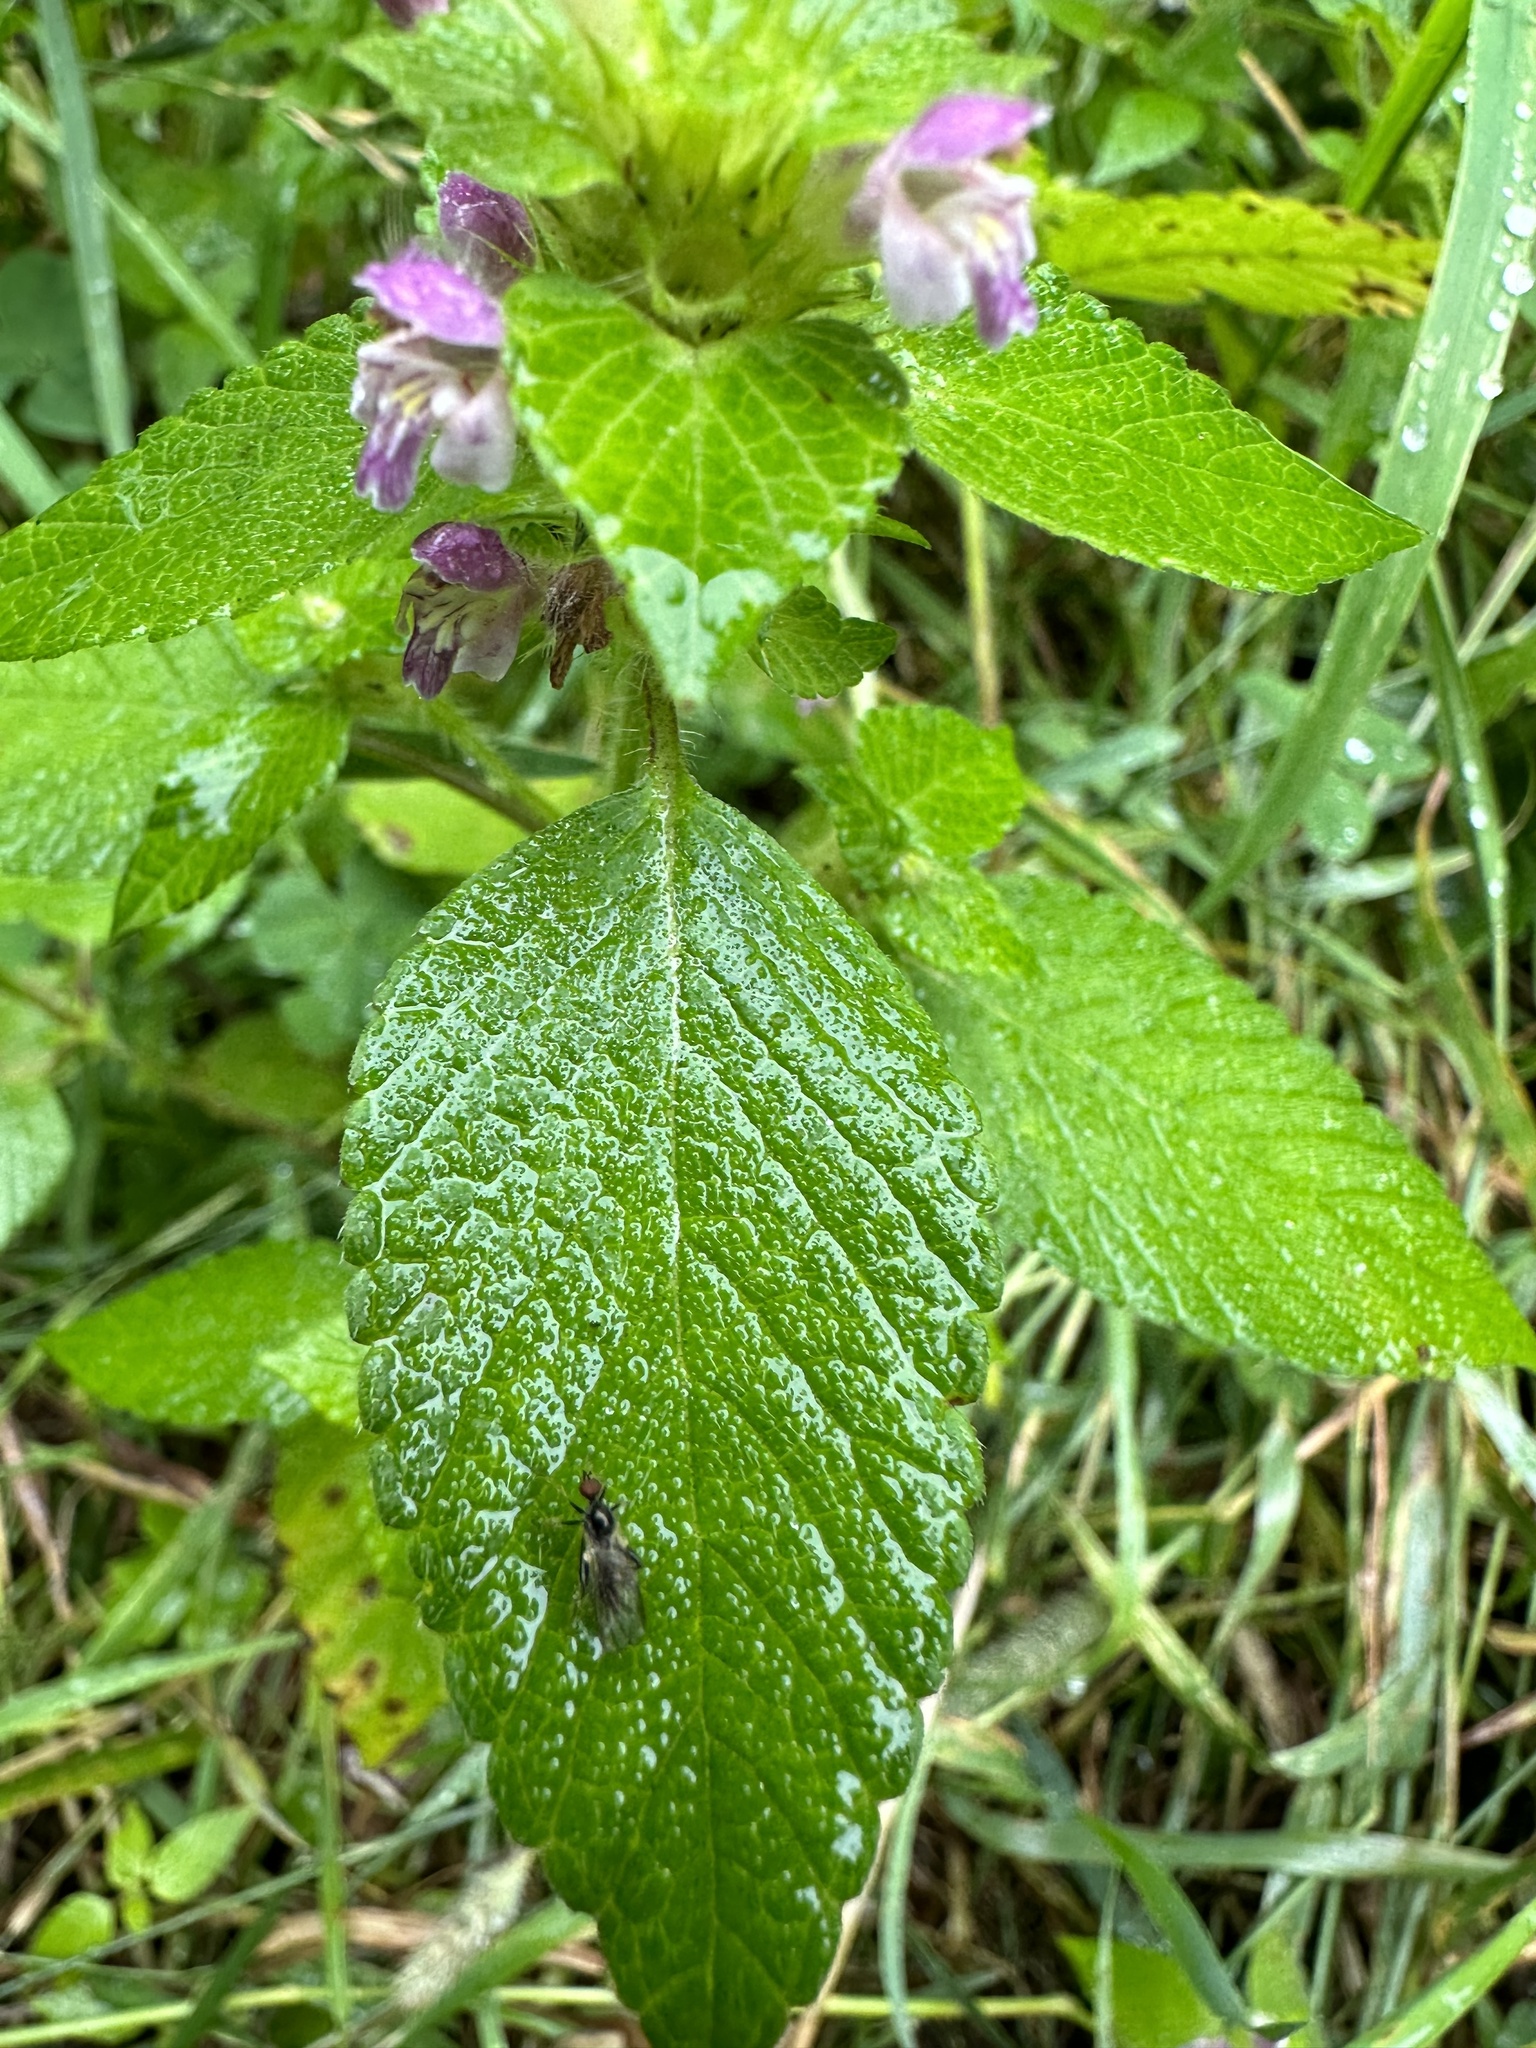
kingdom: Animalia
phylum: Arthropoda
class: Insecta
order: Diptera
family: Hybotidae
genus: Hybos
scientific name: Hybos reversus
